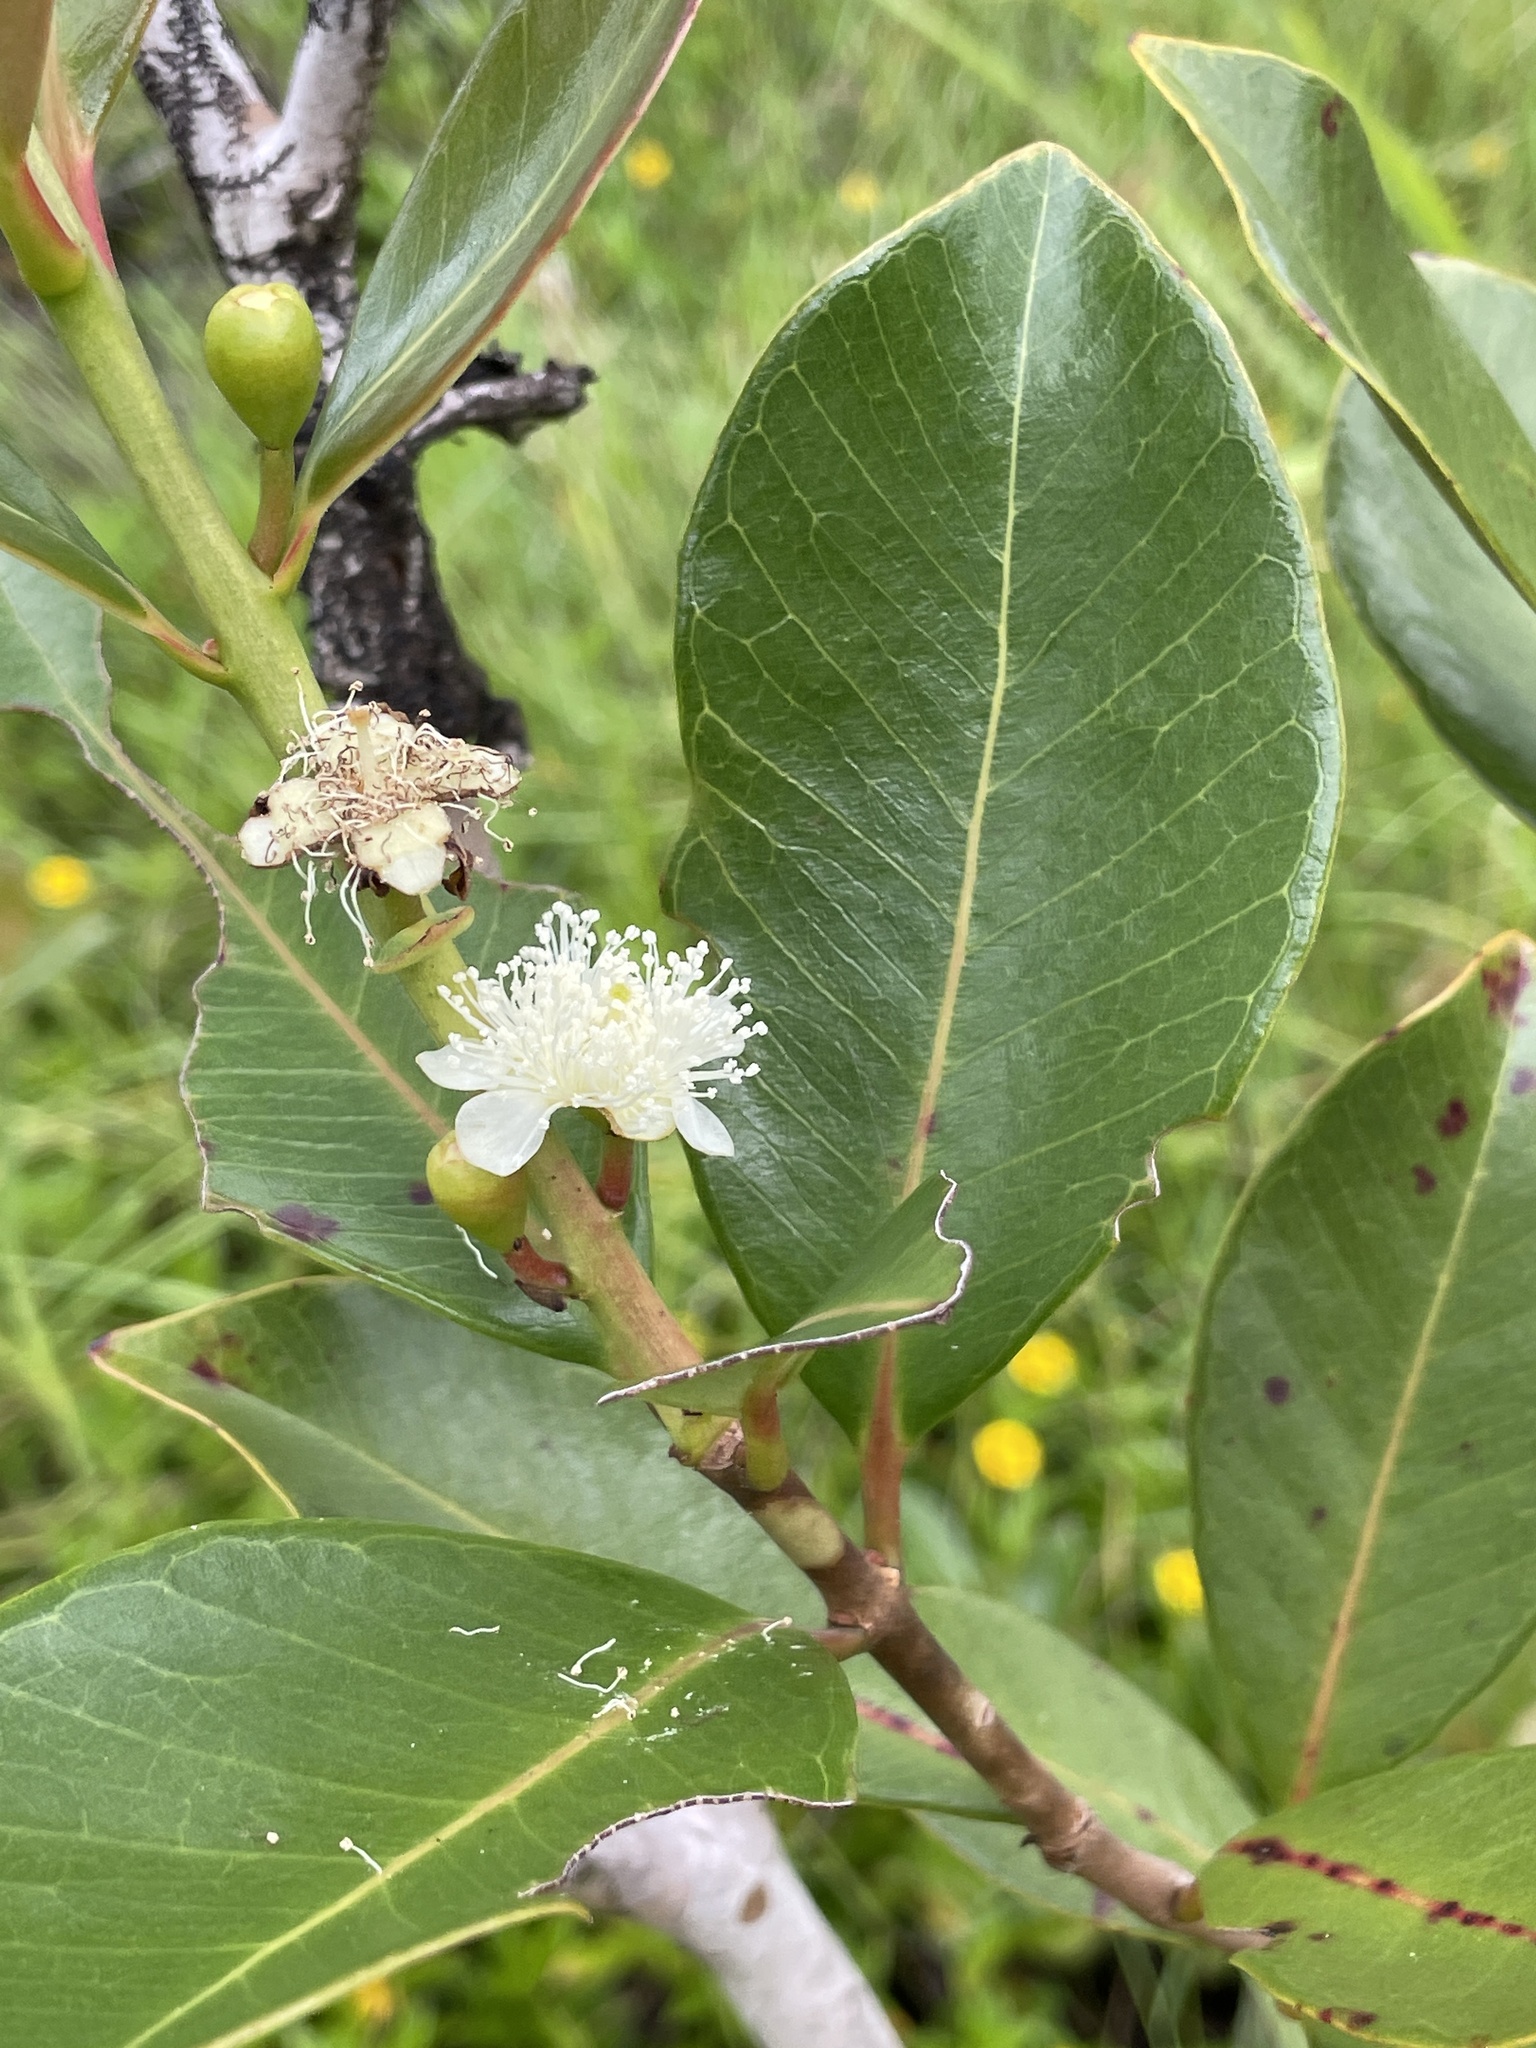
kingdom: Plantae
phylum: Tracheophyta
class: Magnoliopsida
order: Myrtales
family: Myrtaceae
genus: Psidium
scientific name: Psidium cattleianum
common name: Strawberry guava
